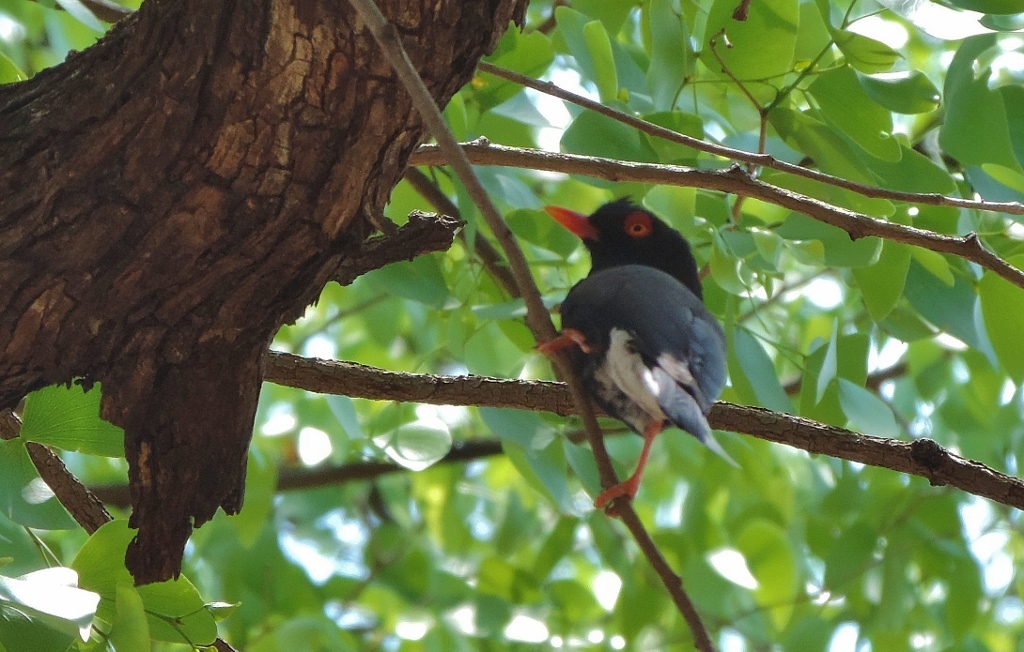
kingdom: Animalia
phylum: Chordata
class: Aves
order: Passeriformes
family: Prionopidae
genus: Prionops
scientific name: Prionops retzii
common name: Retz's helmetshrike
